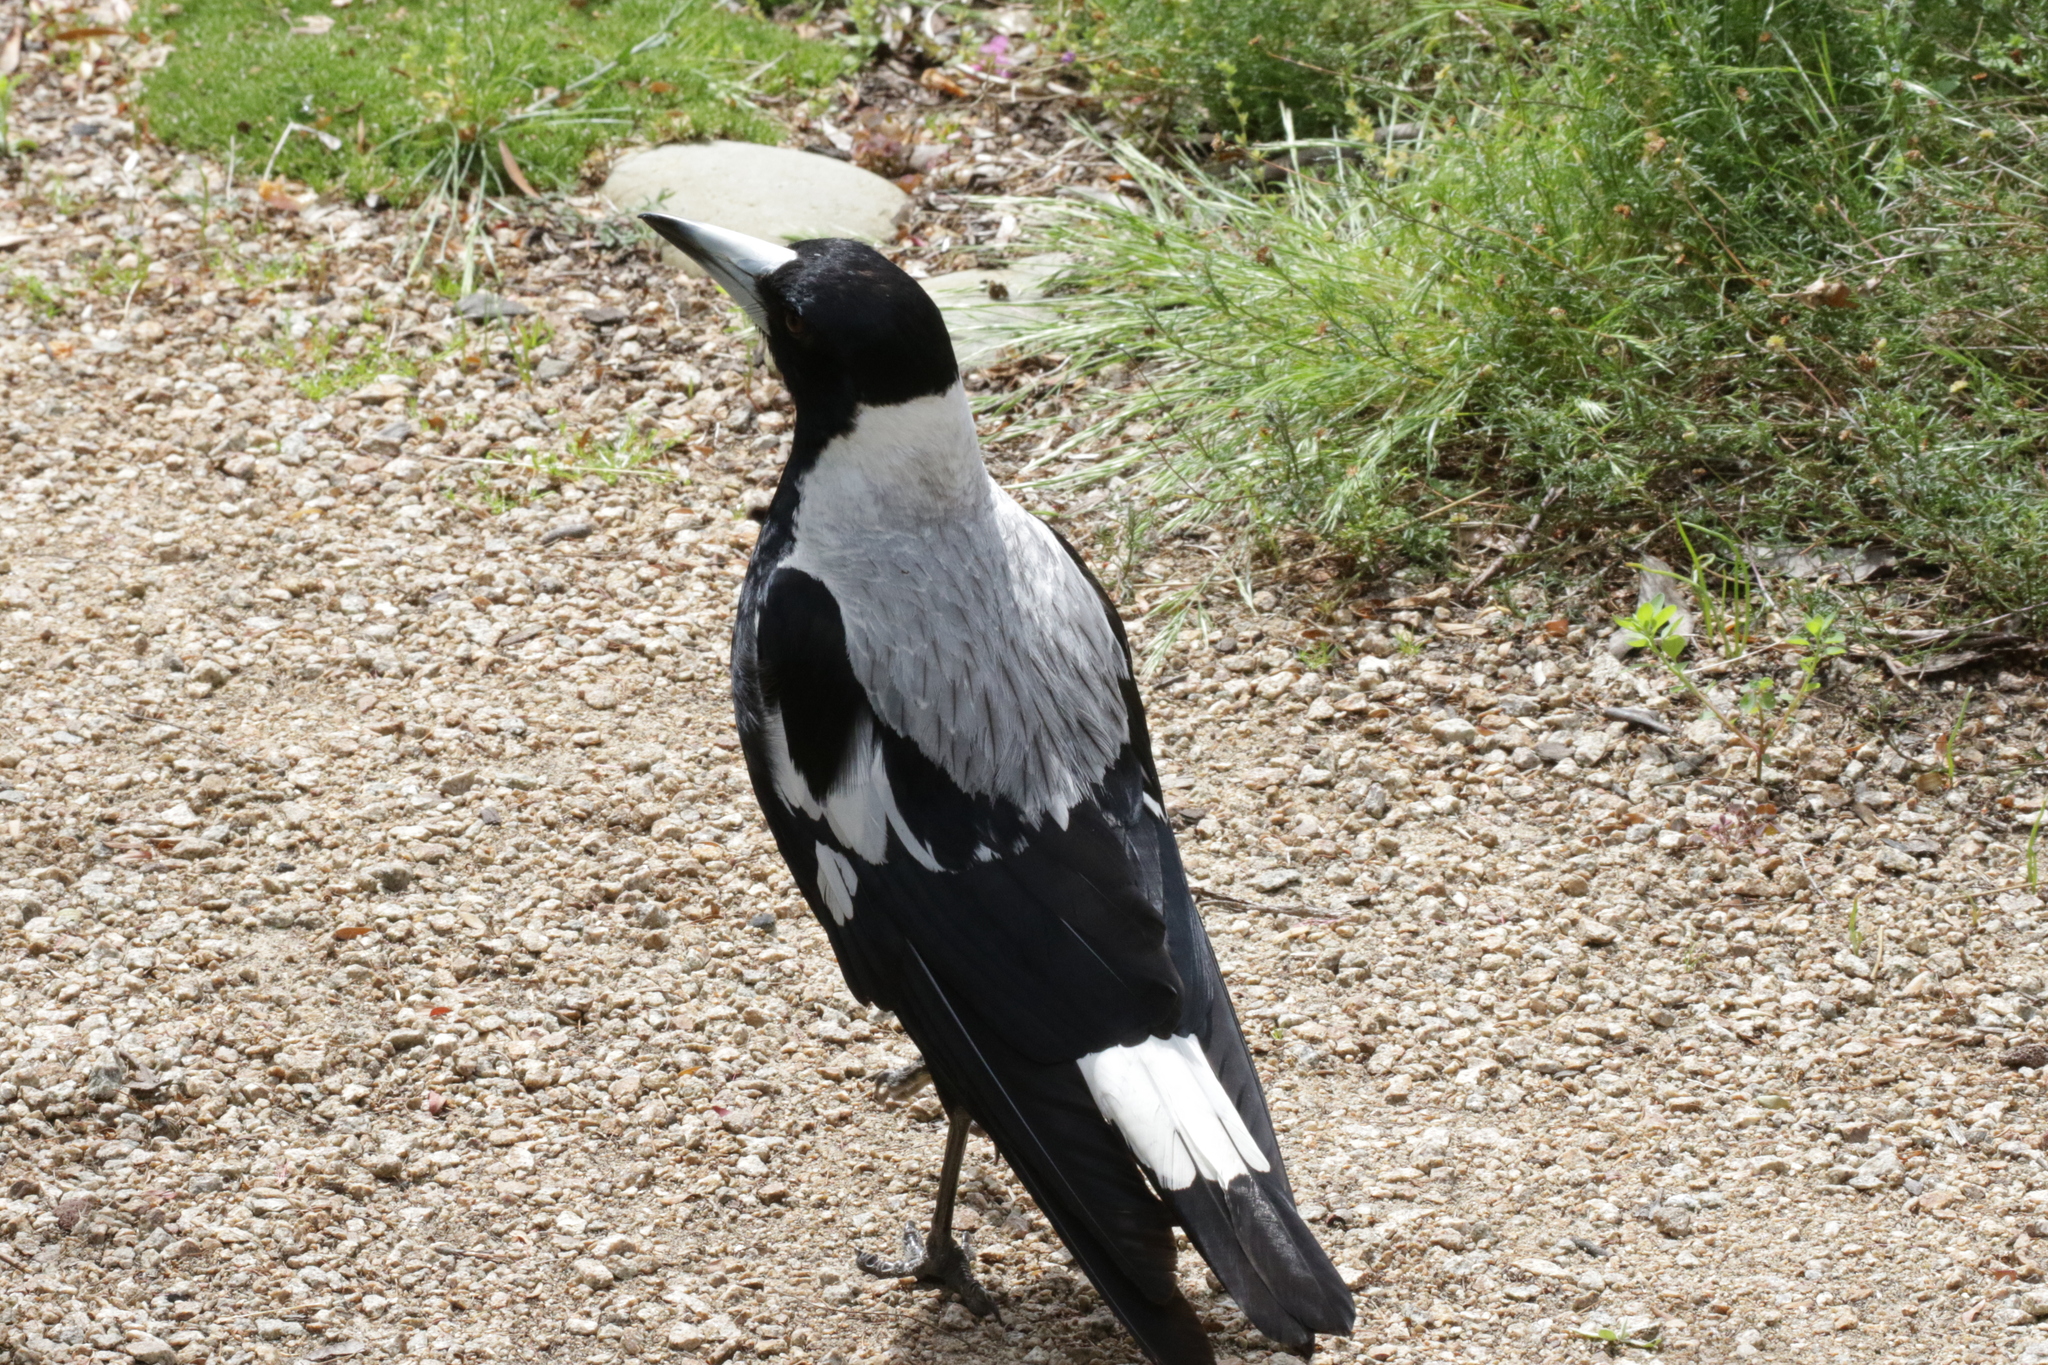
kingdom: Animalia
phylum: Chordata
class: Aves
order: Passeriformes
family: Cracticidae
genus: Gymnorhina
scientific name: Gymnorhina tibicen
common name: Australian magpie
